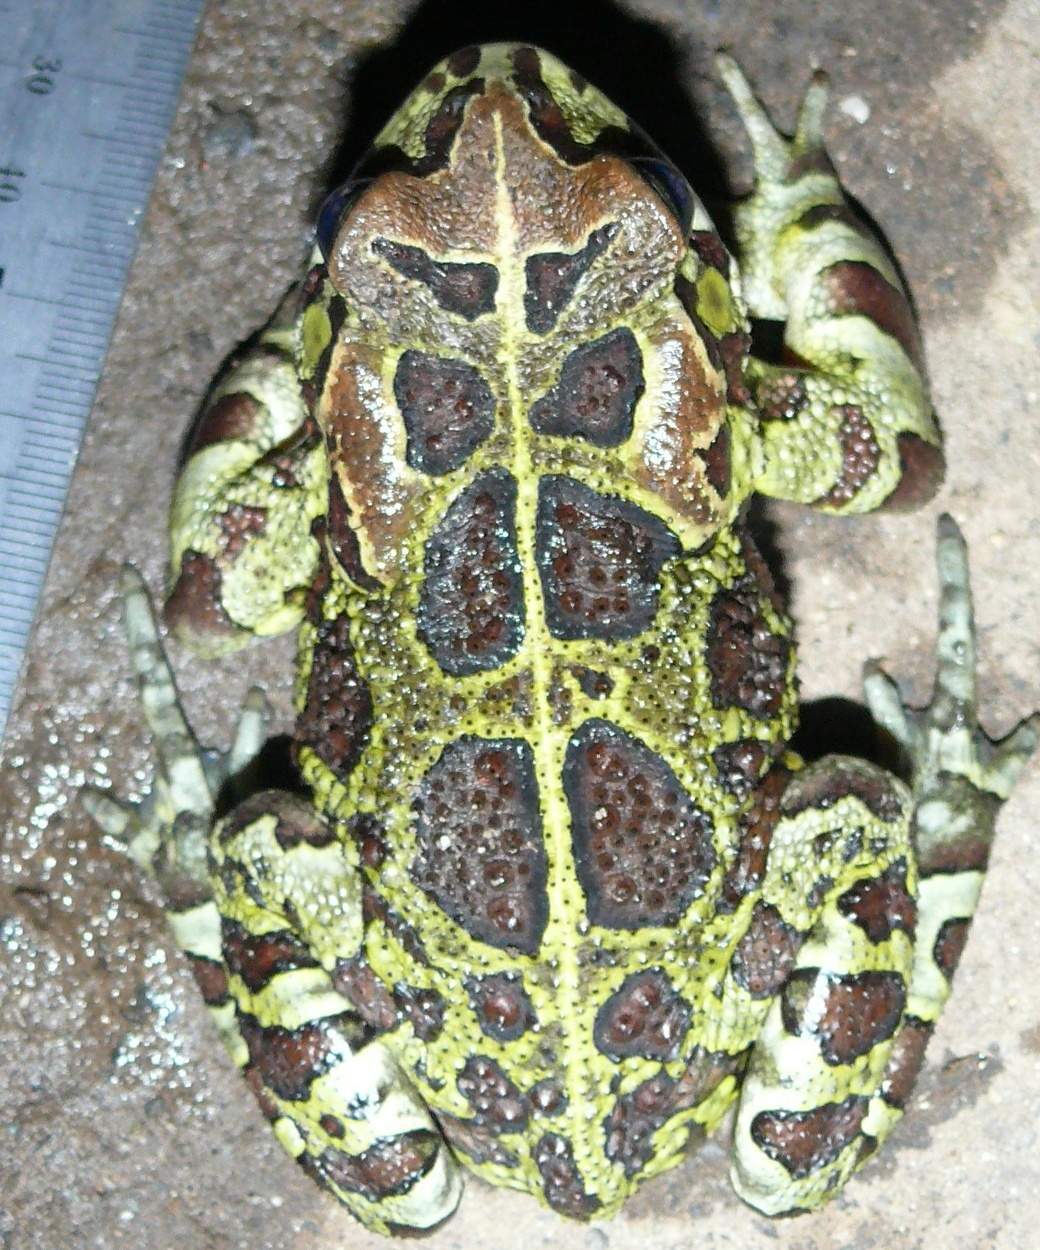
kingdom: Animalia
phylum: Chordata
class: Amphibia
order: Anura
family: Bufonidae
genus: Sclerophrys
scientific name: Sclerophrys pantherina
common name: Panther toad
